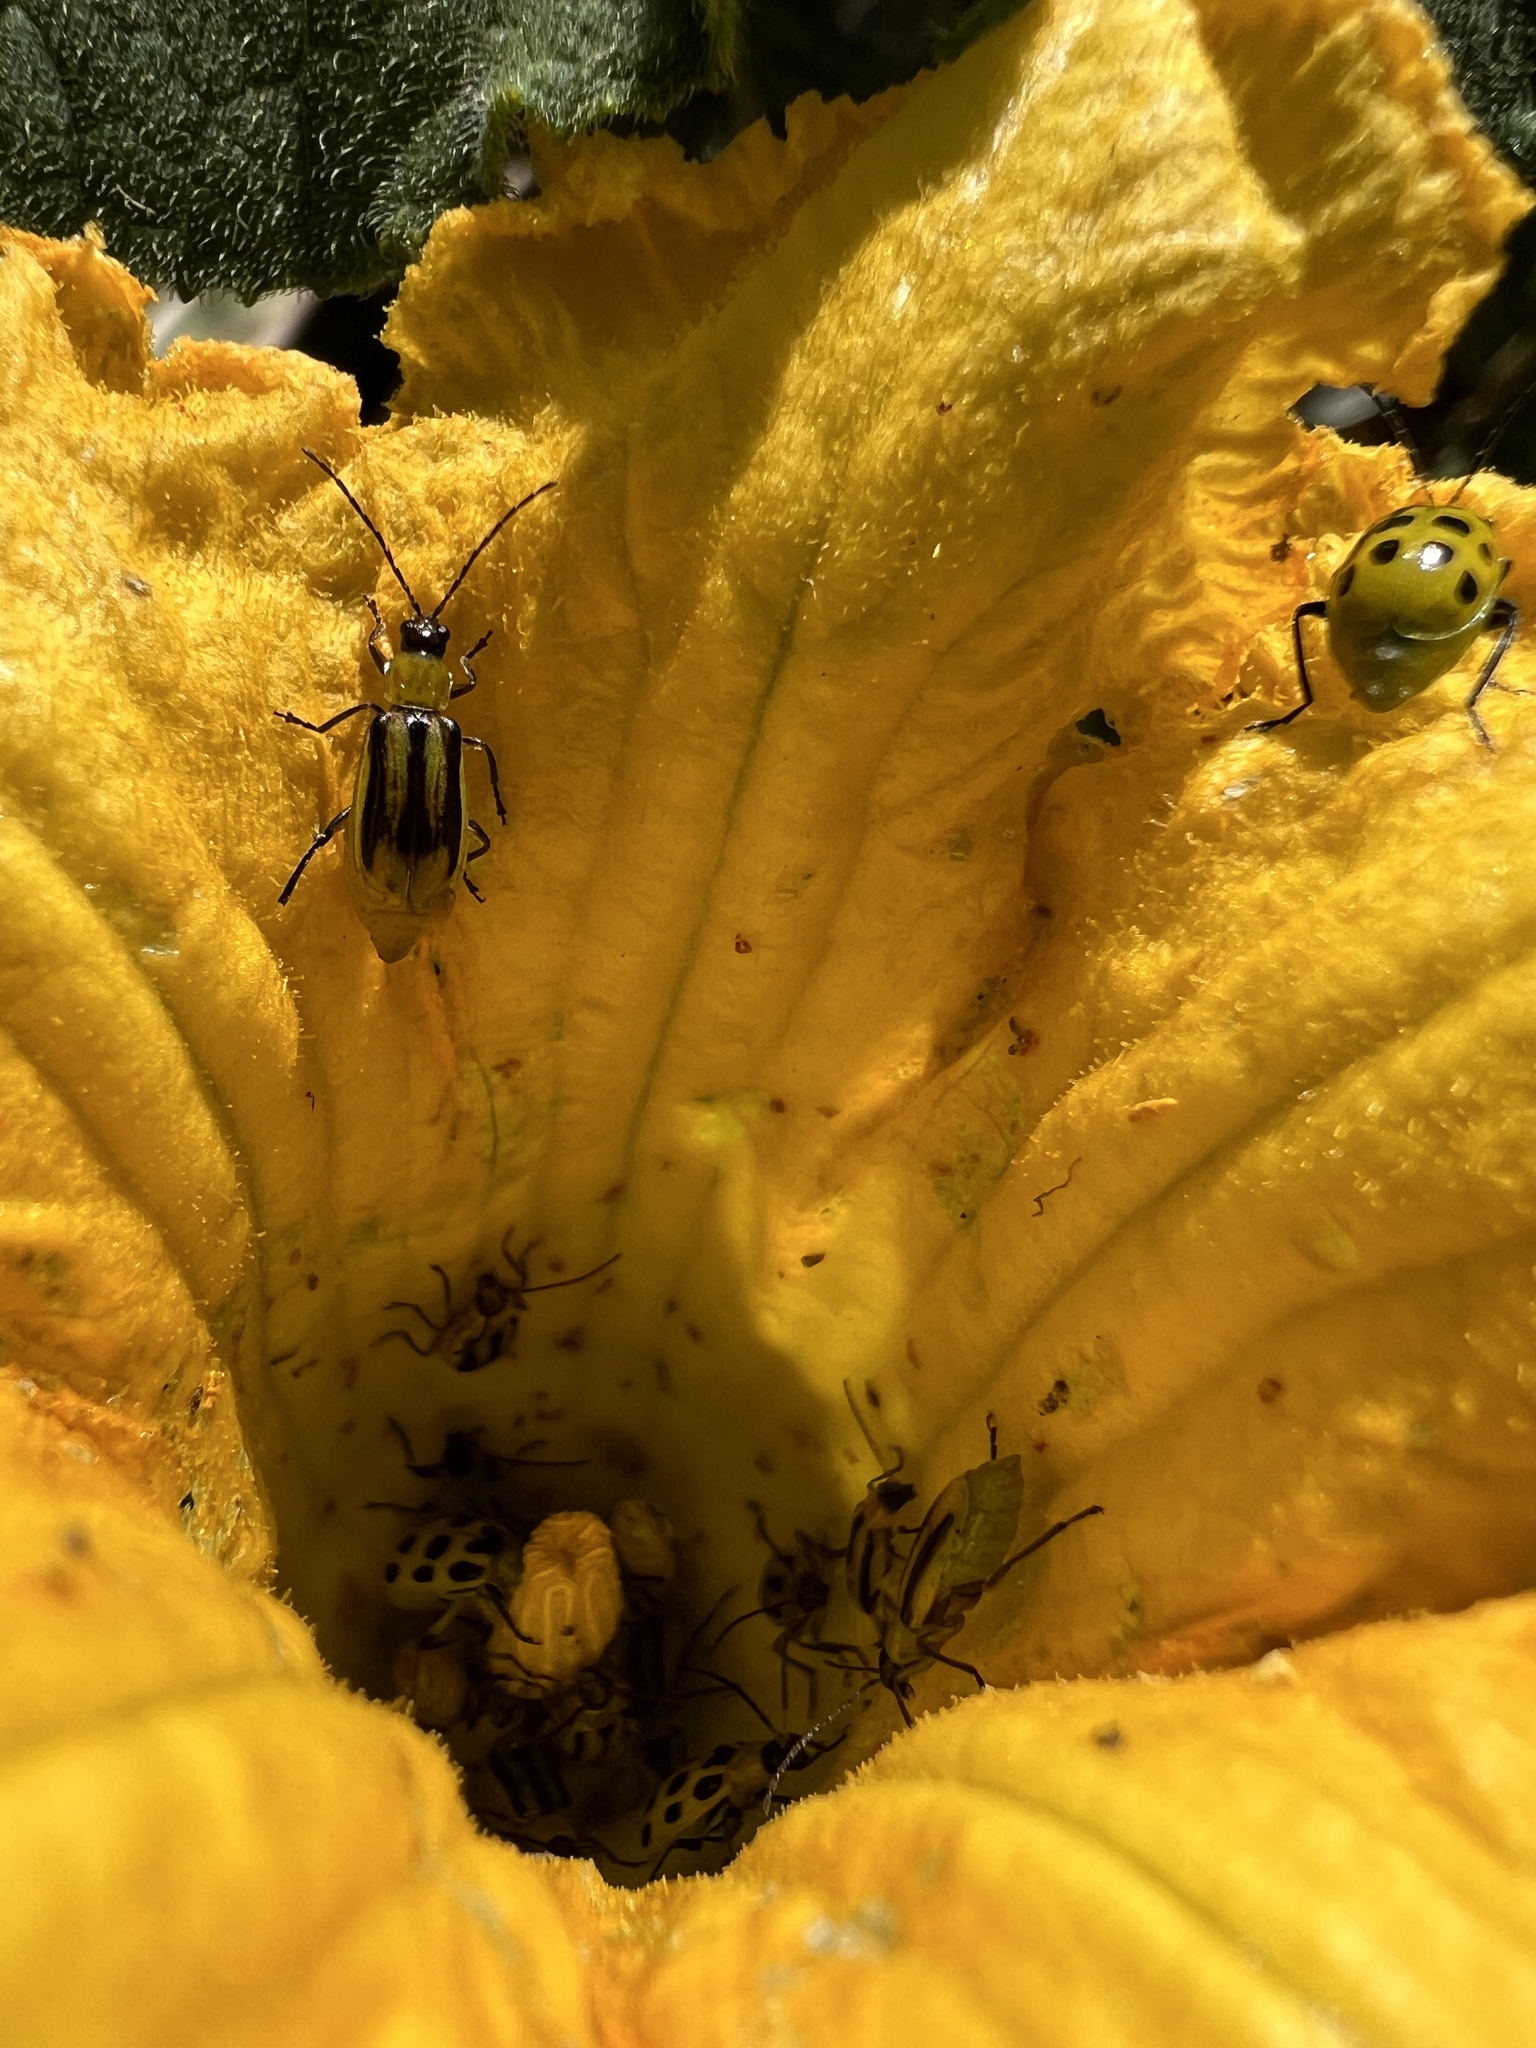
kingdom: Animalia
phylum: Arthropoda
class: Insecta
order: Coleoptera
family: Chrysomelidae
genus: Diabrotica
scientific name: Diabrotica virgifera
